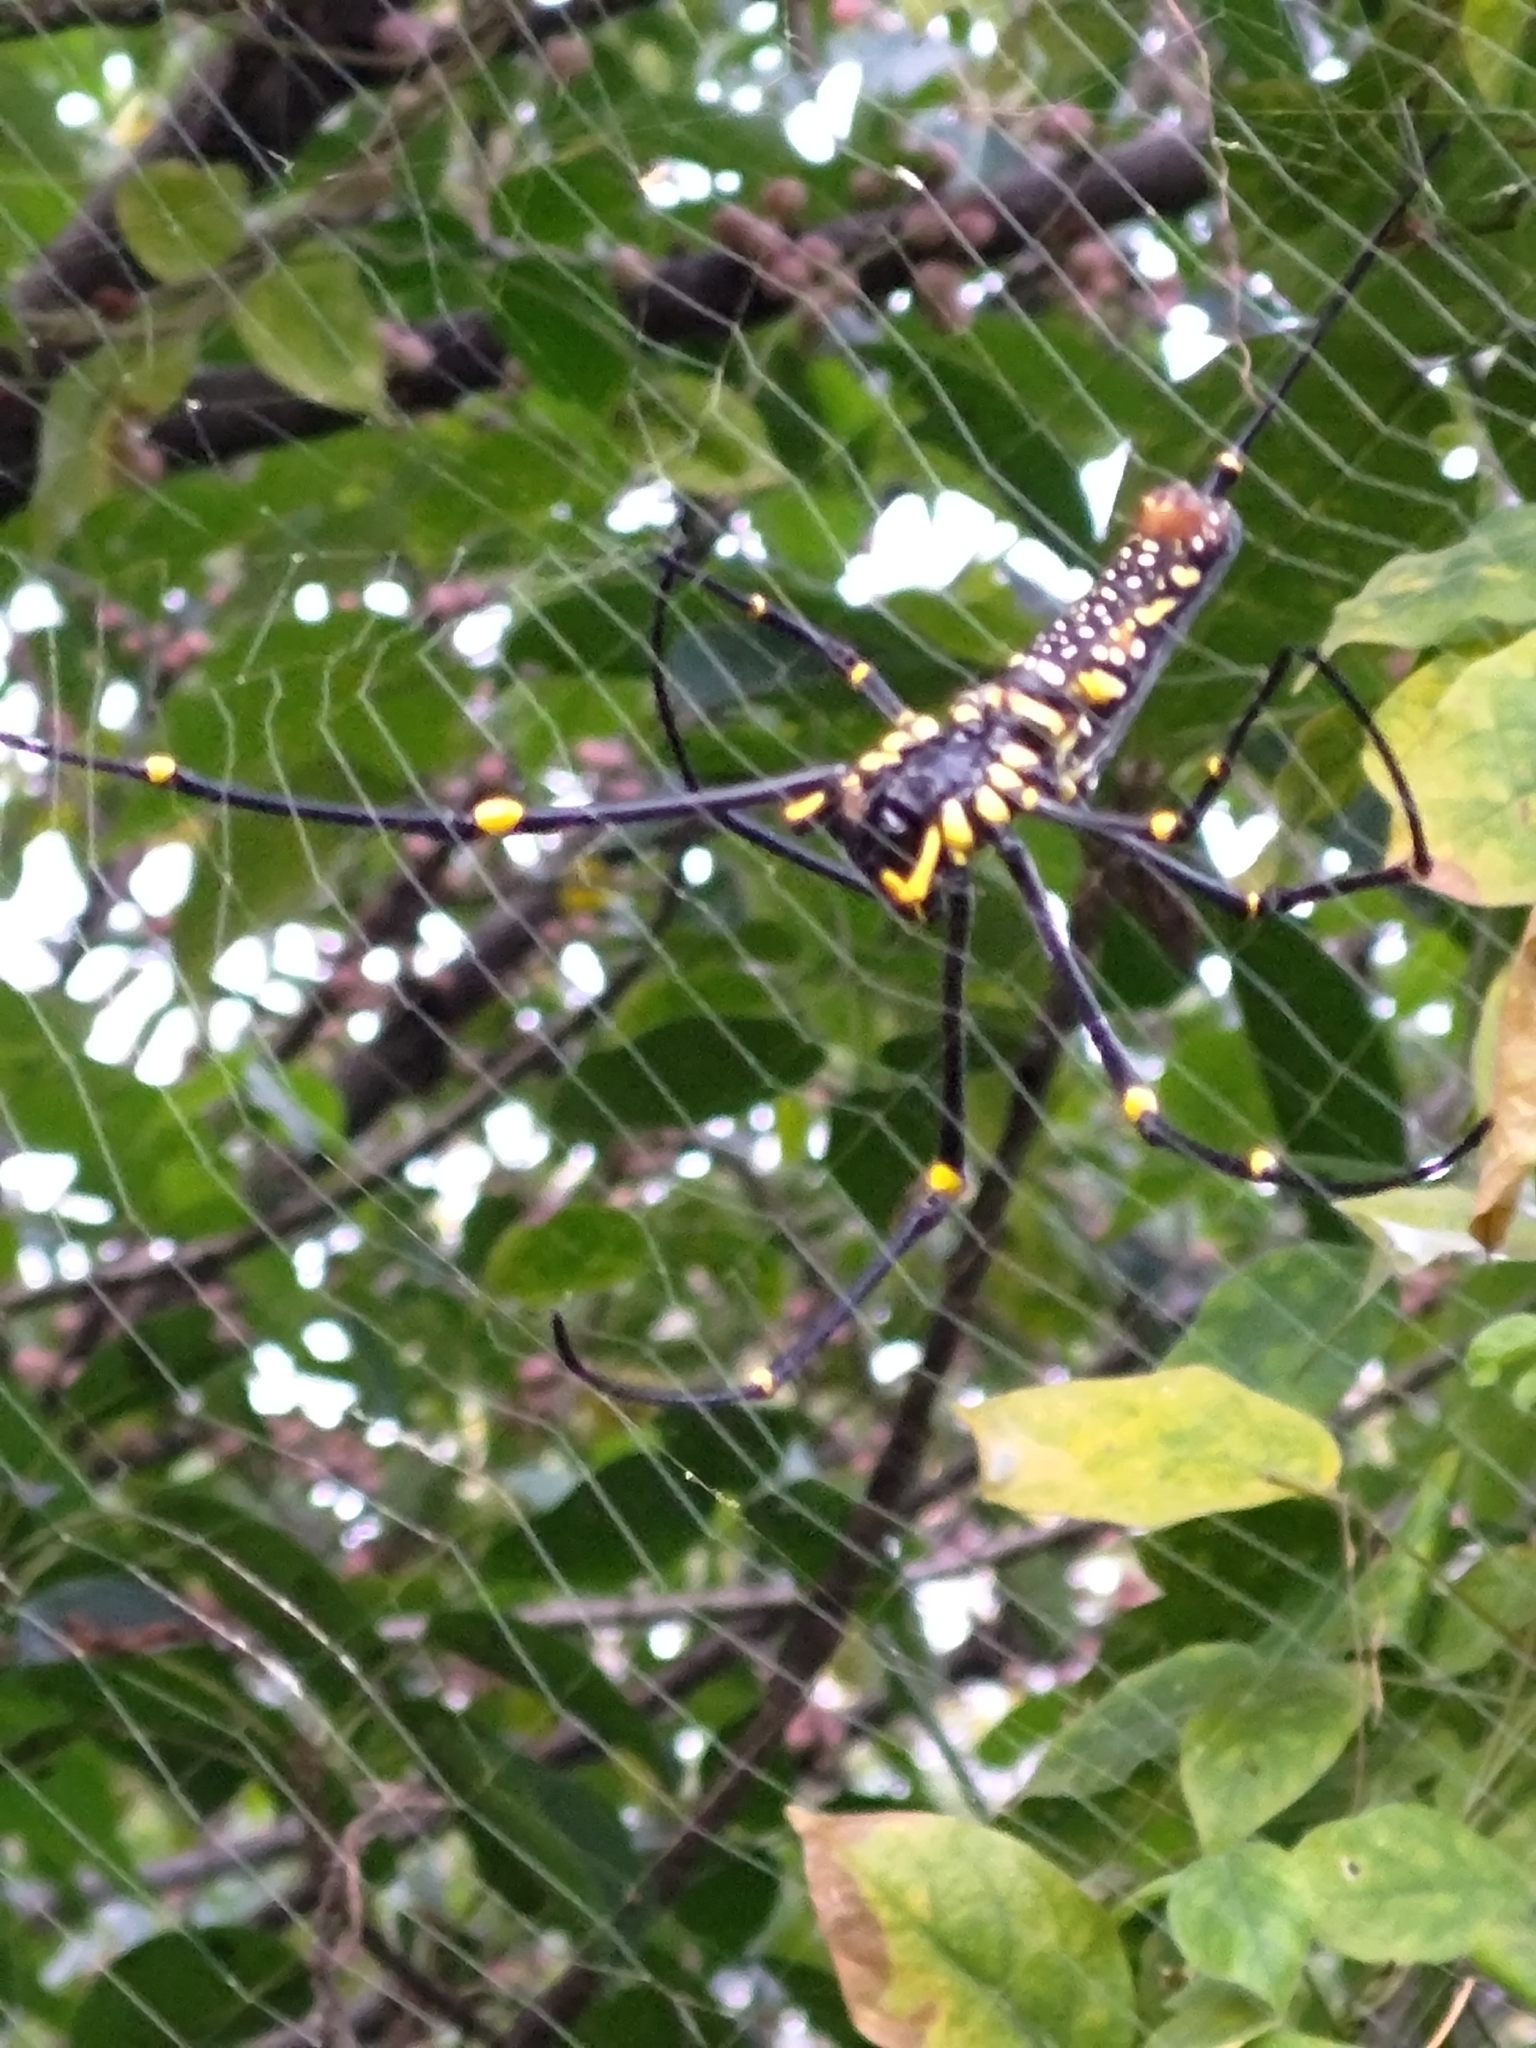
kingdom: Animalia
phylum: Arthropoda
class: Arachnida
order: Araneae
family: Araneidae
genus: Nephila
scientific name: Nephila pilipes
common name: Giant golden orb weaver
